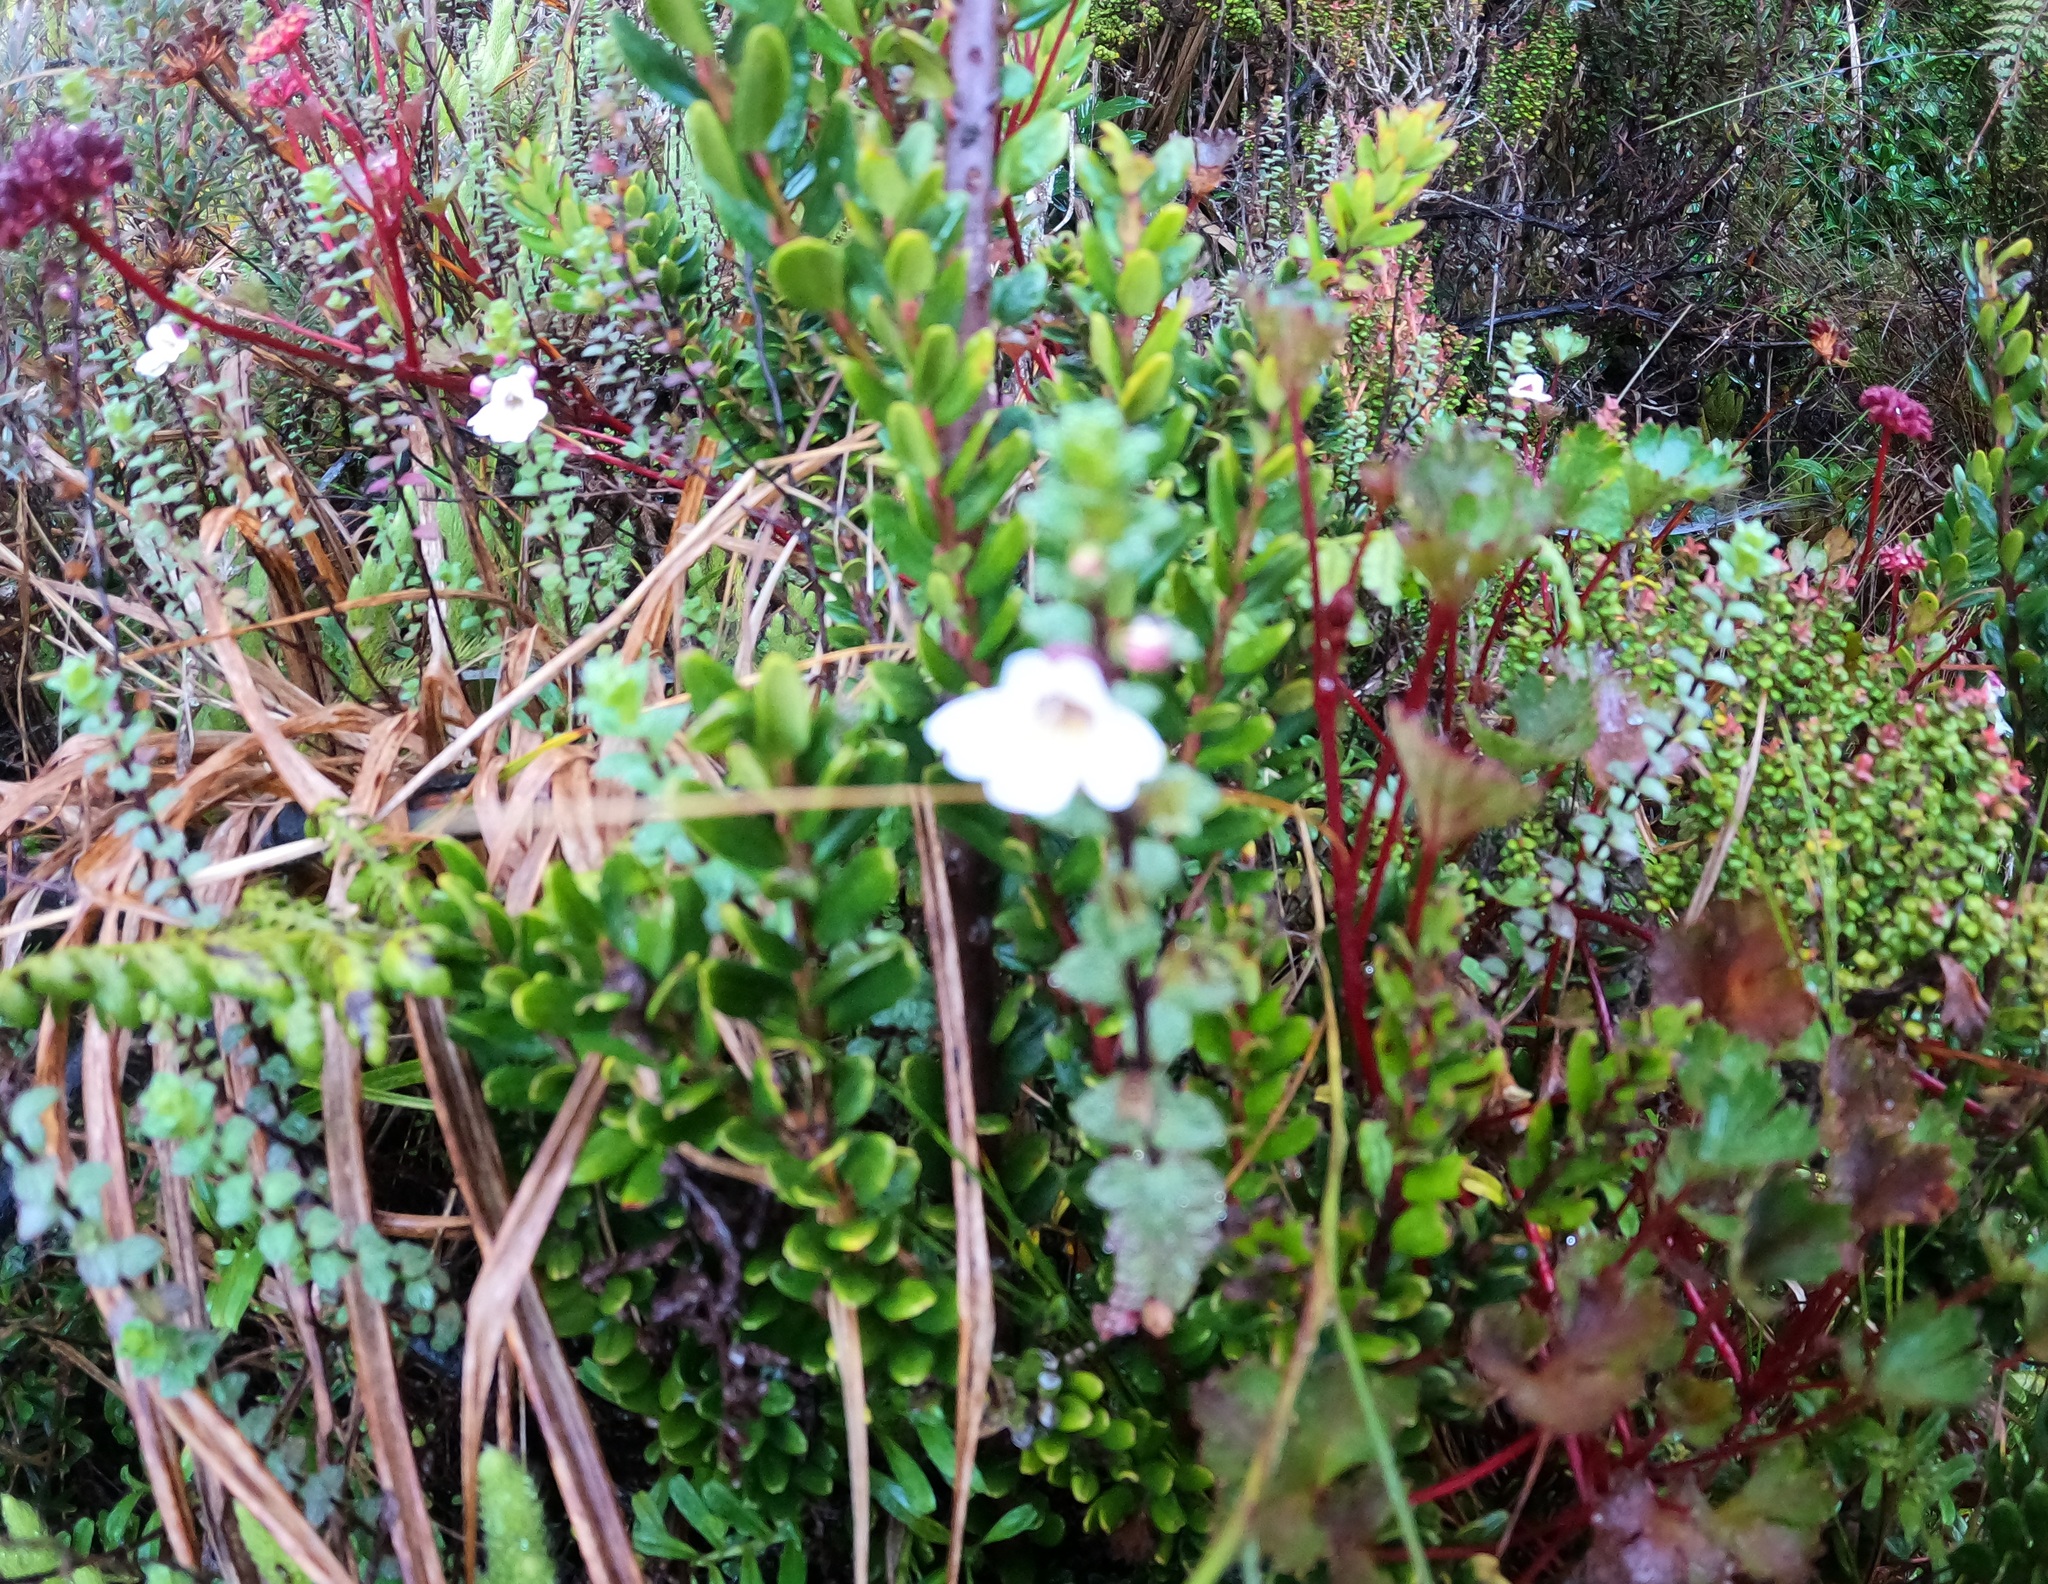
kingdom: Plantae
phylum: Tracheophyta
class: Magnoliopsida
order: Apiales
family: Araliaceae
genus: Trachymene
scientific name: Trachymene saniculifolia
